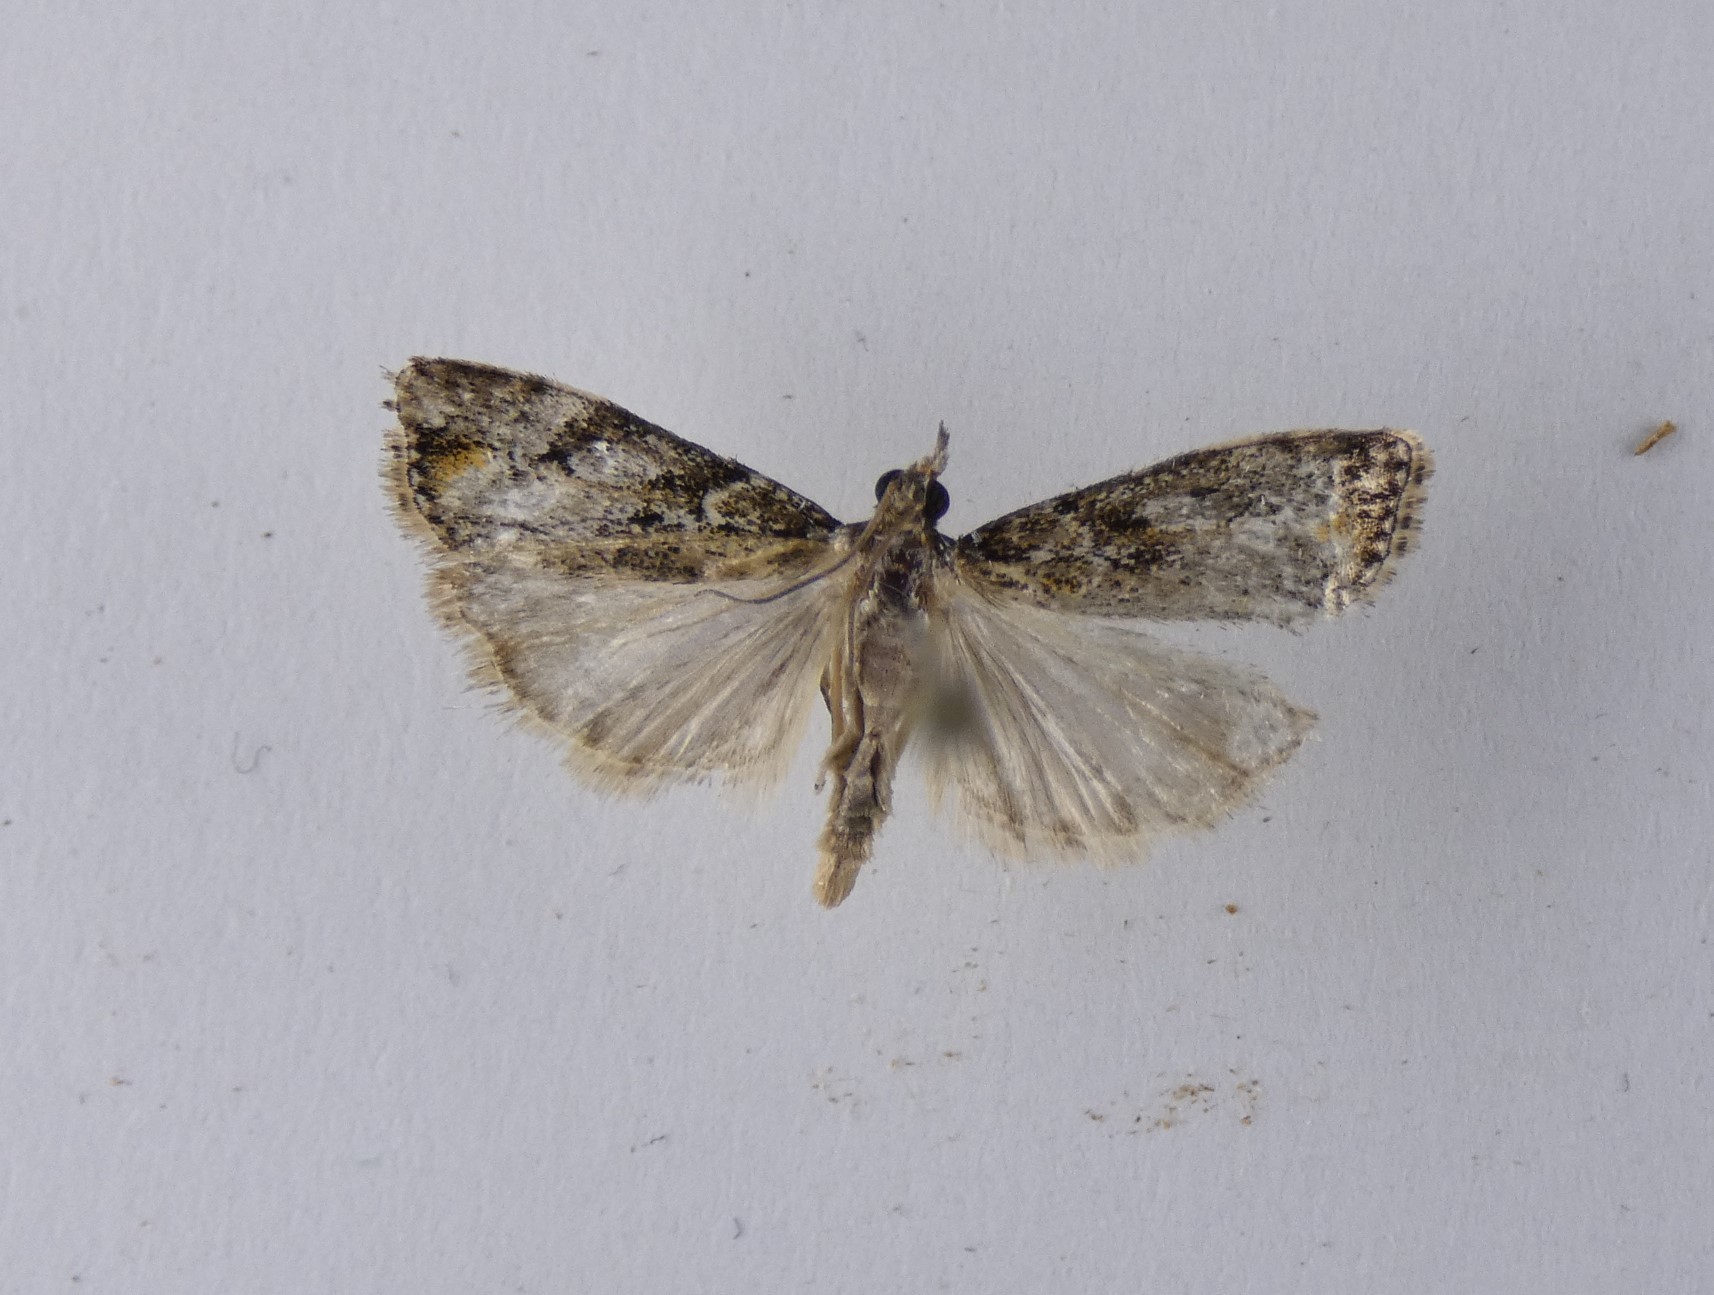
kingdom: Animalia
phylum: Arthropoda
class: Insecta
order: Lepidoptera
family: Crambidae
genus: Eudonia
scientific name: Eudonia minualis
